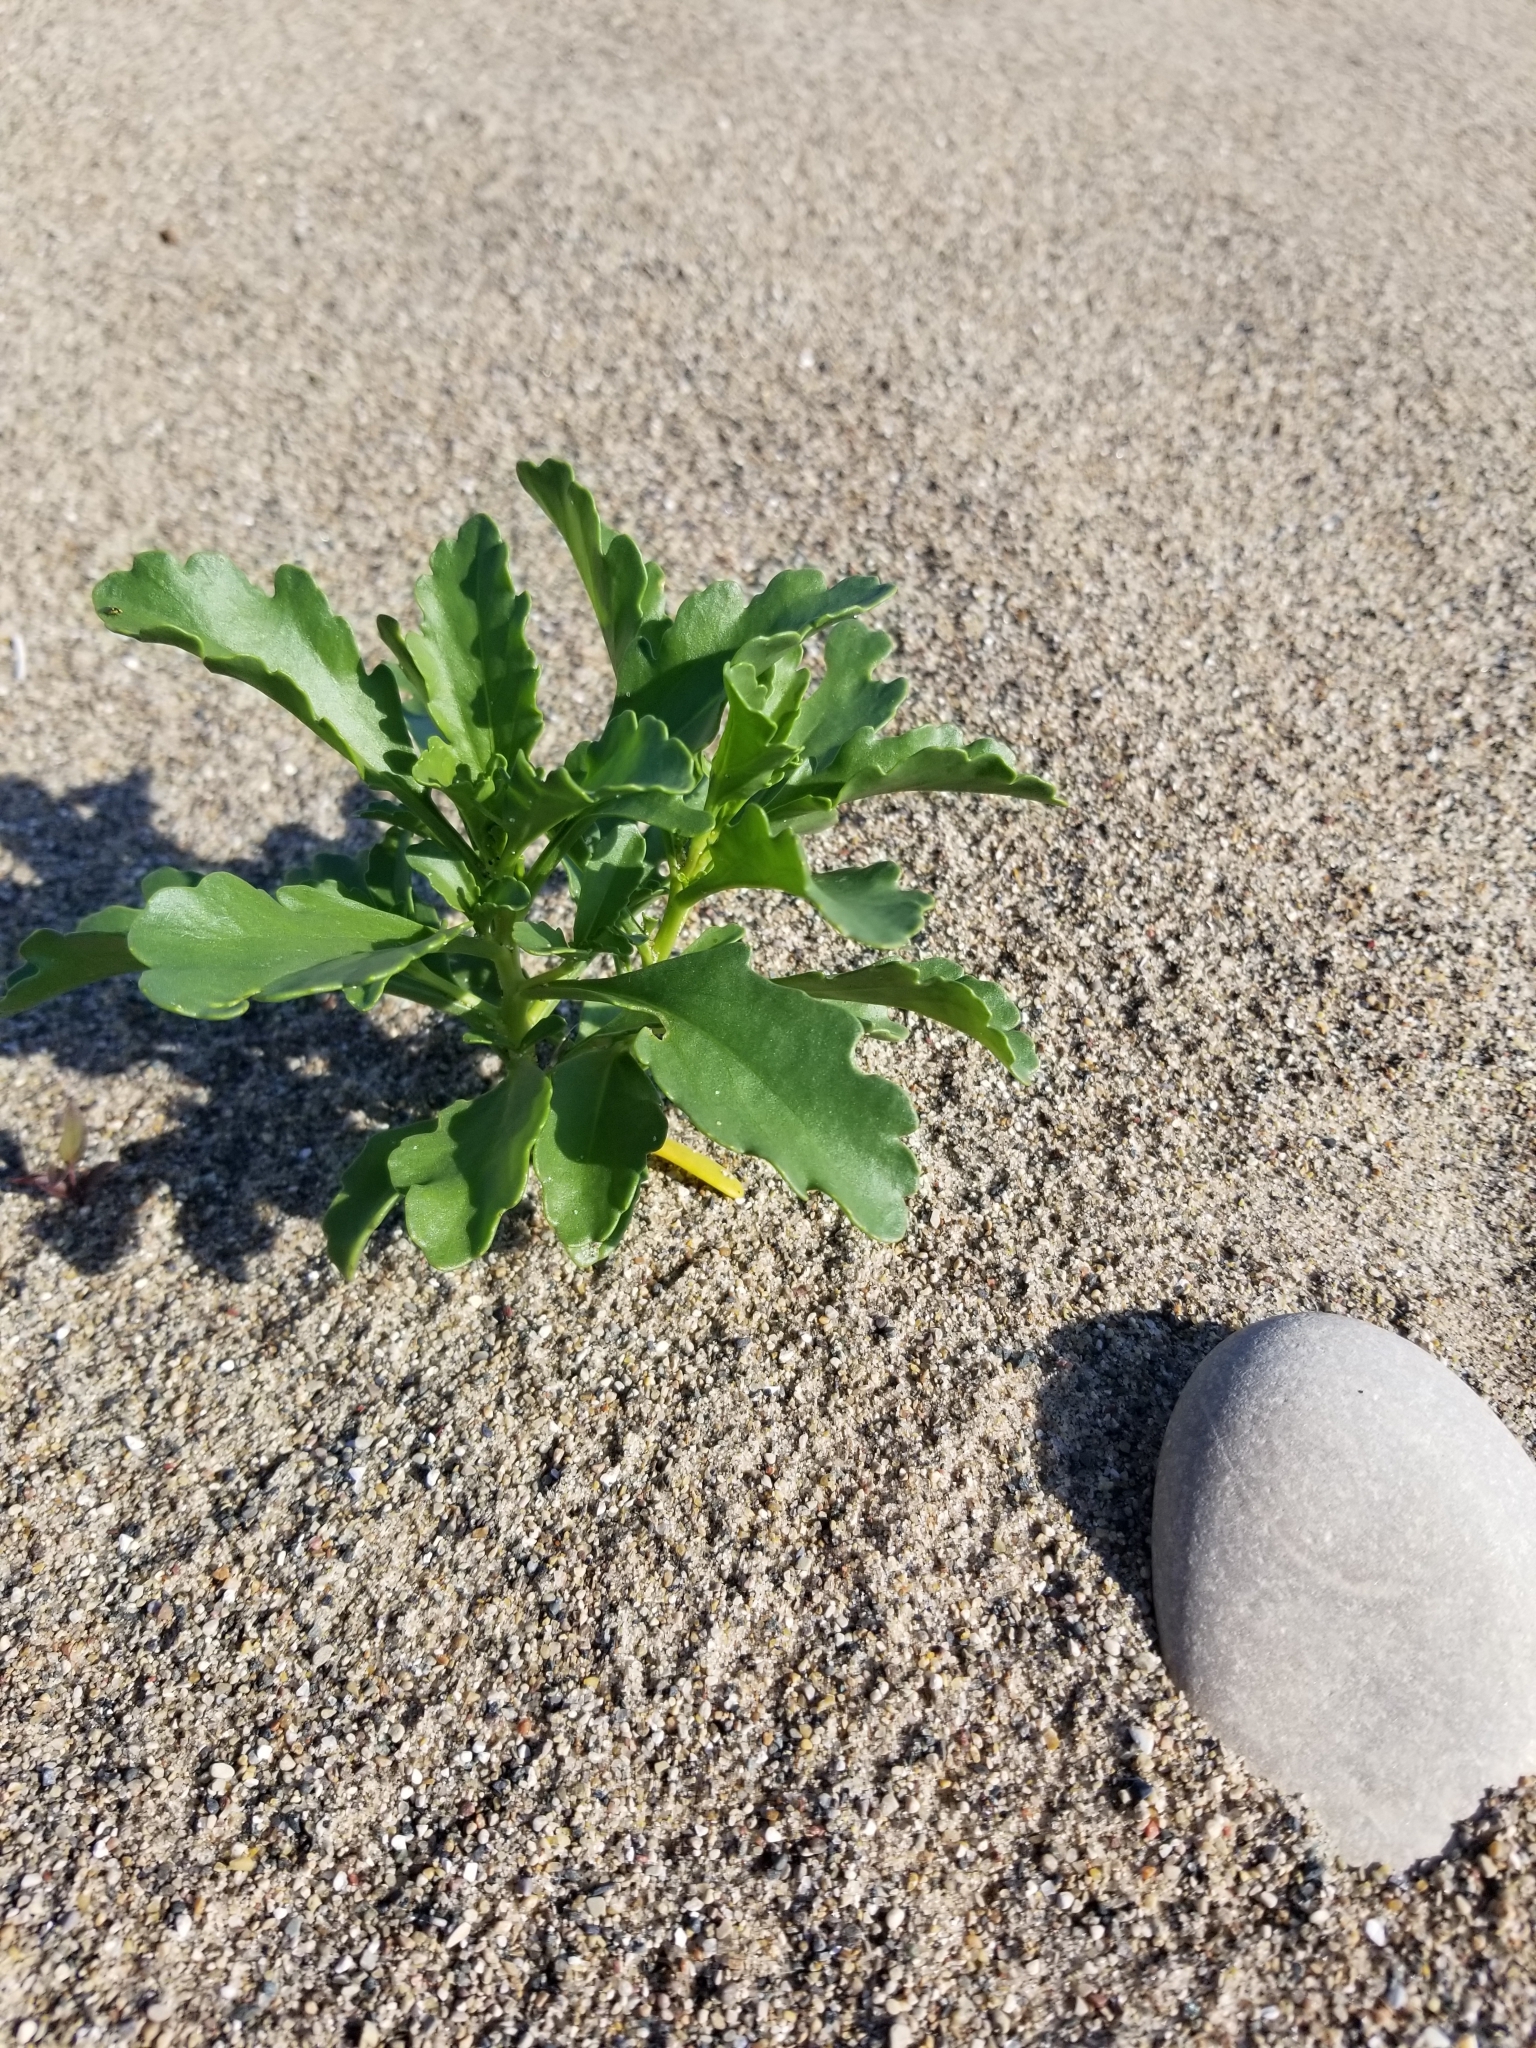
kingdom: Plantae
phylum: Tracheophyta
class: Magnoliopsida
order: Brassicales
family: Brassicaceae
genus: Cakile
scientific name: Cakile edentula
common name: American sea rocket
